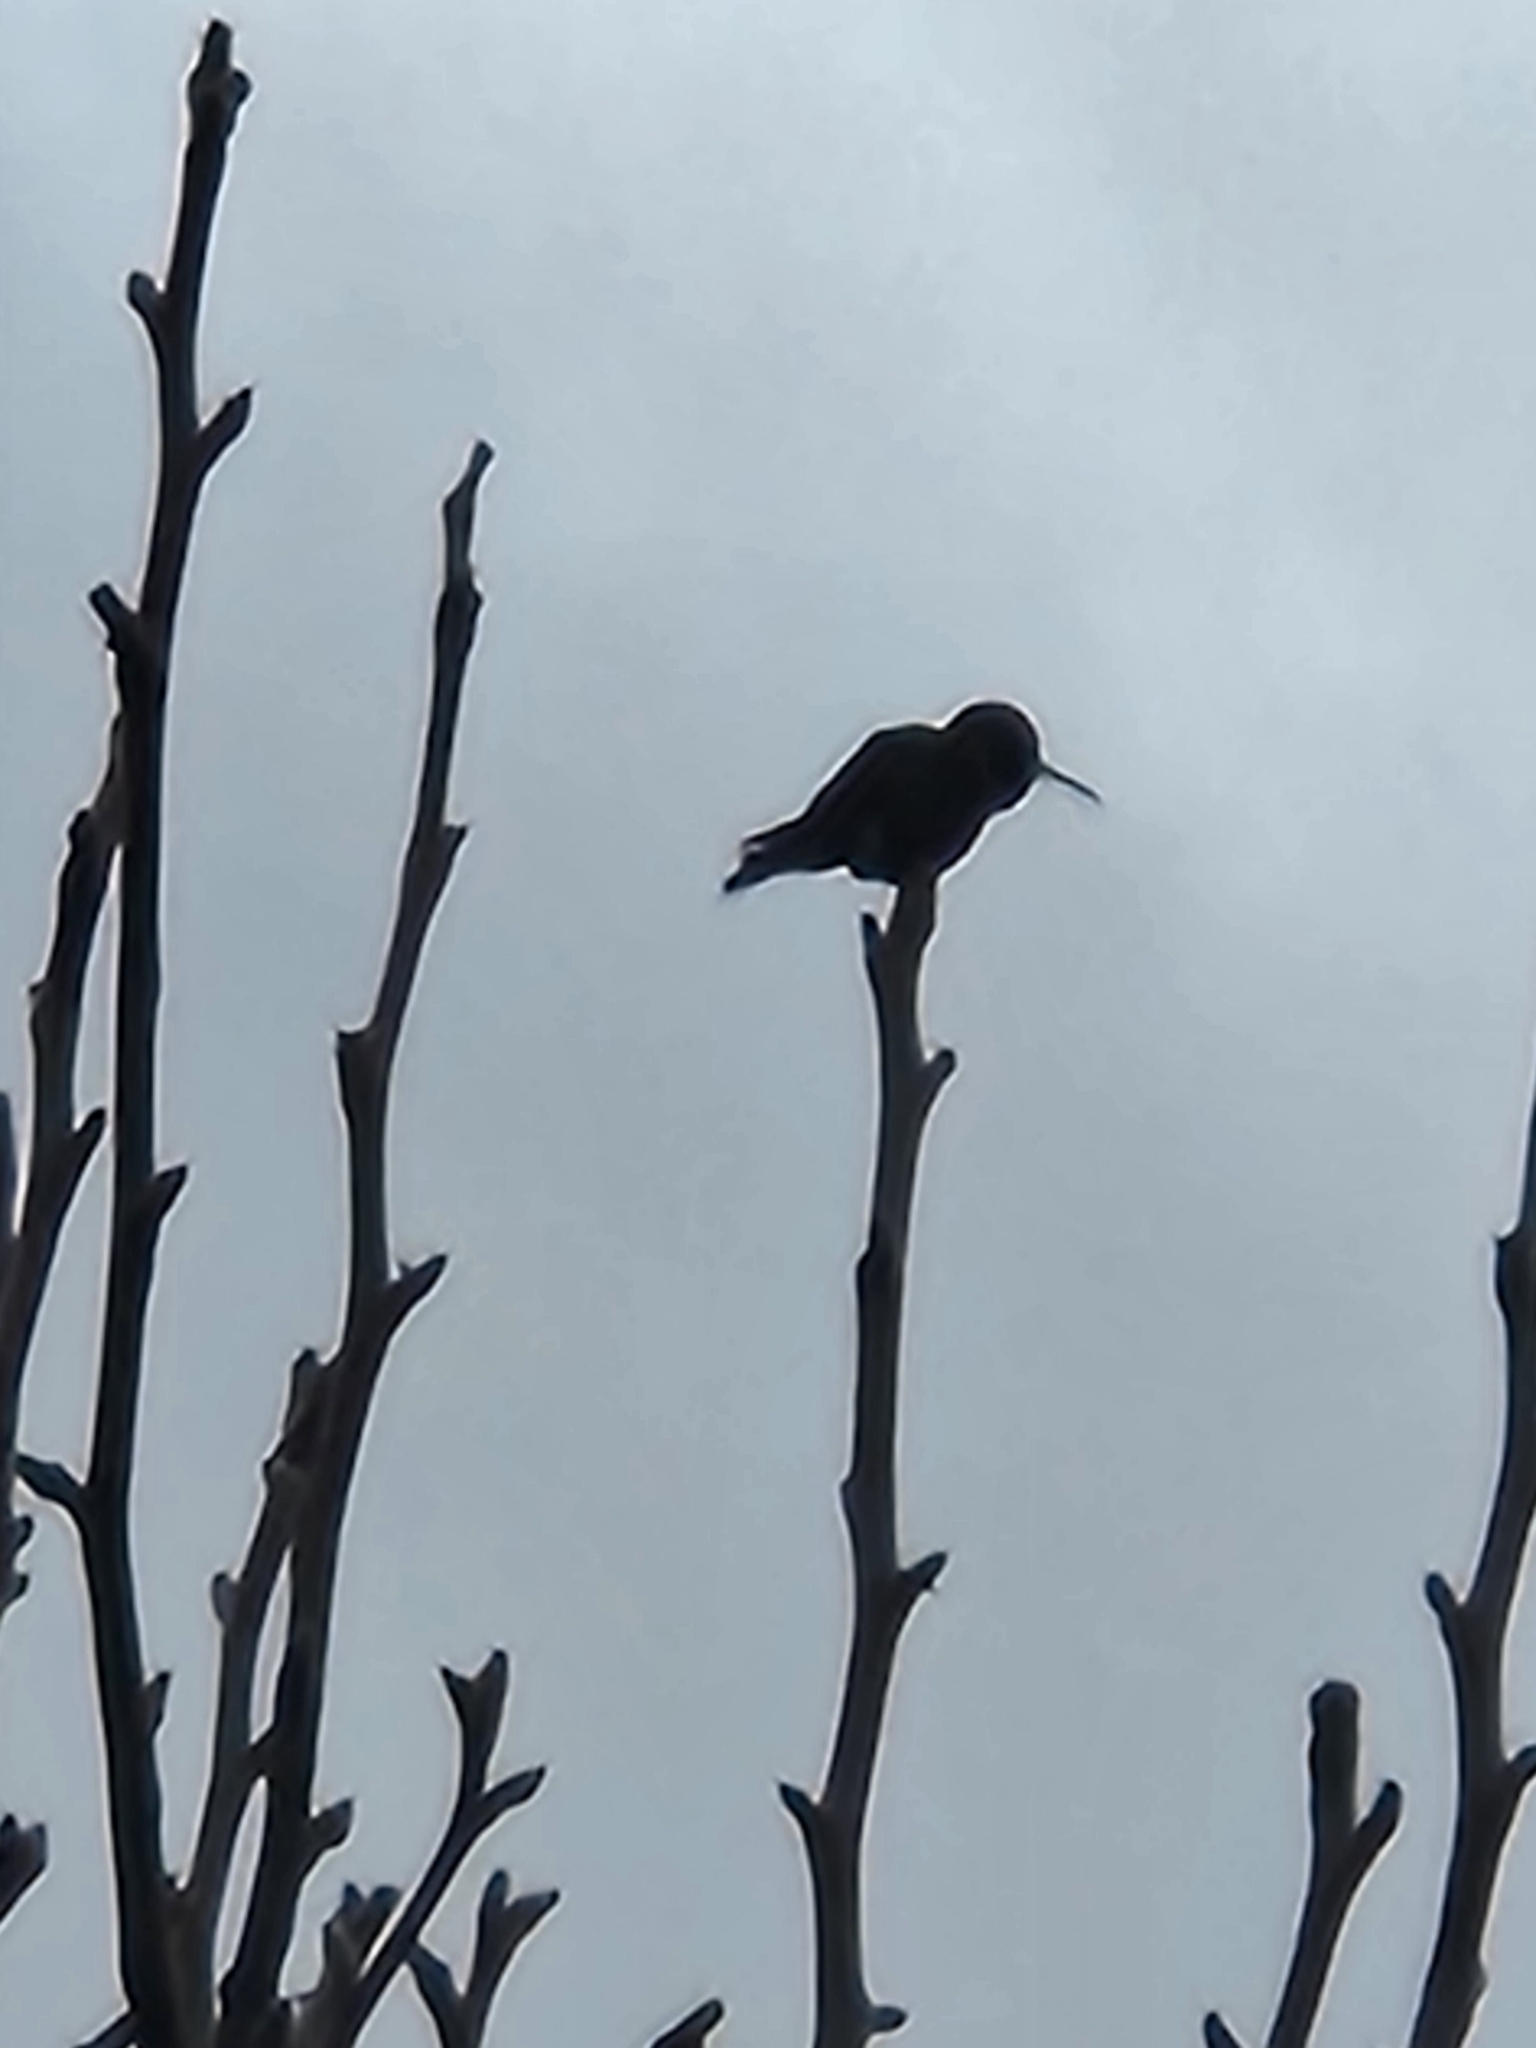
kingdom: Animalia
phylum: Chordata
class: Aves
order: Apodiformes
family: Trochilidae
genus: Calypte
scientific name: Calypte anna
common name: Anna's hummingbird
